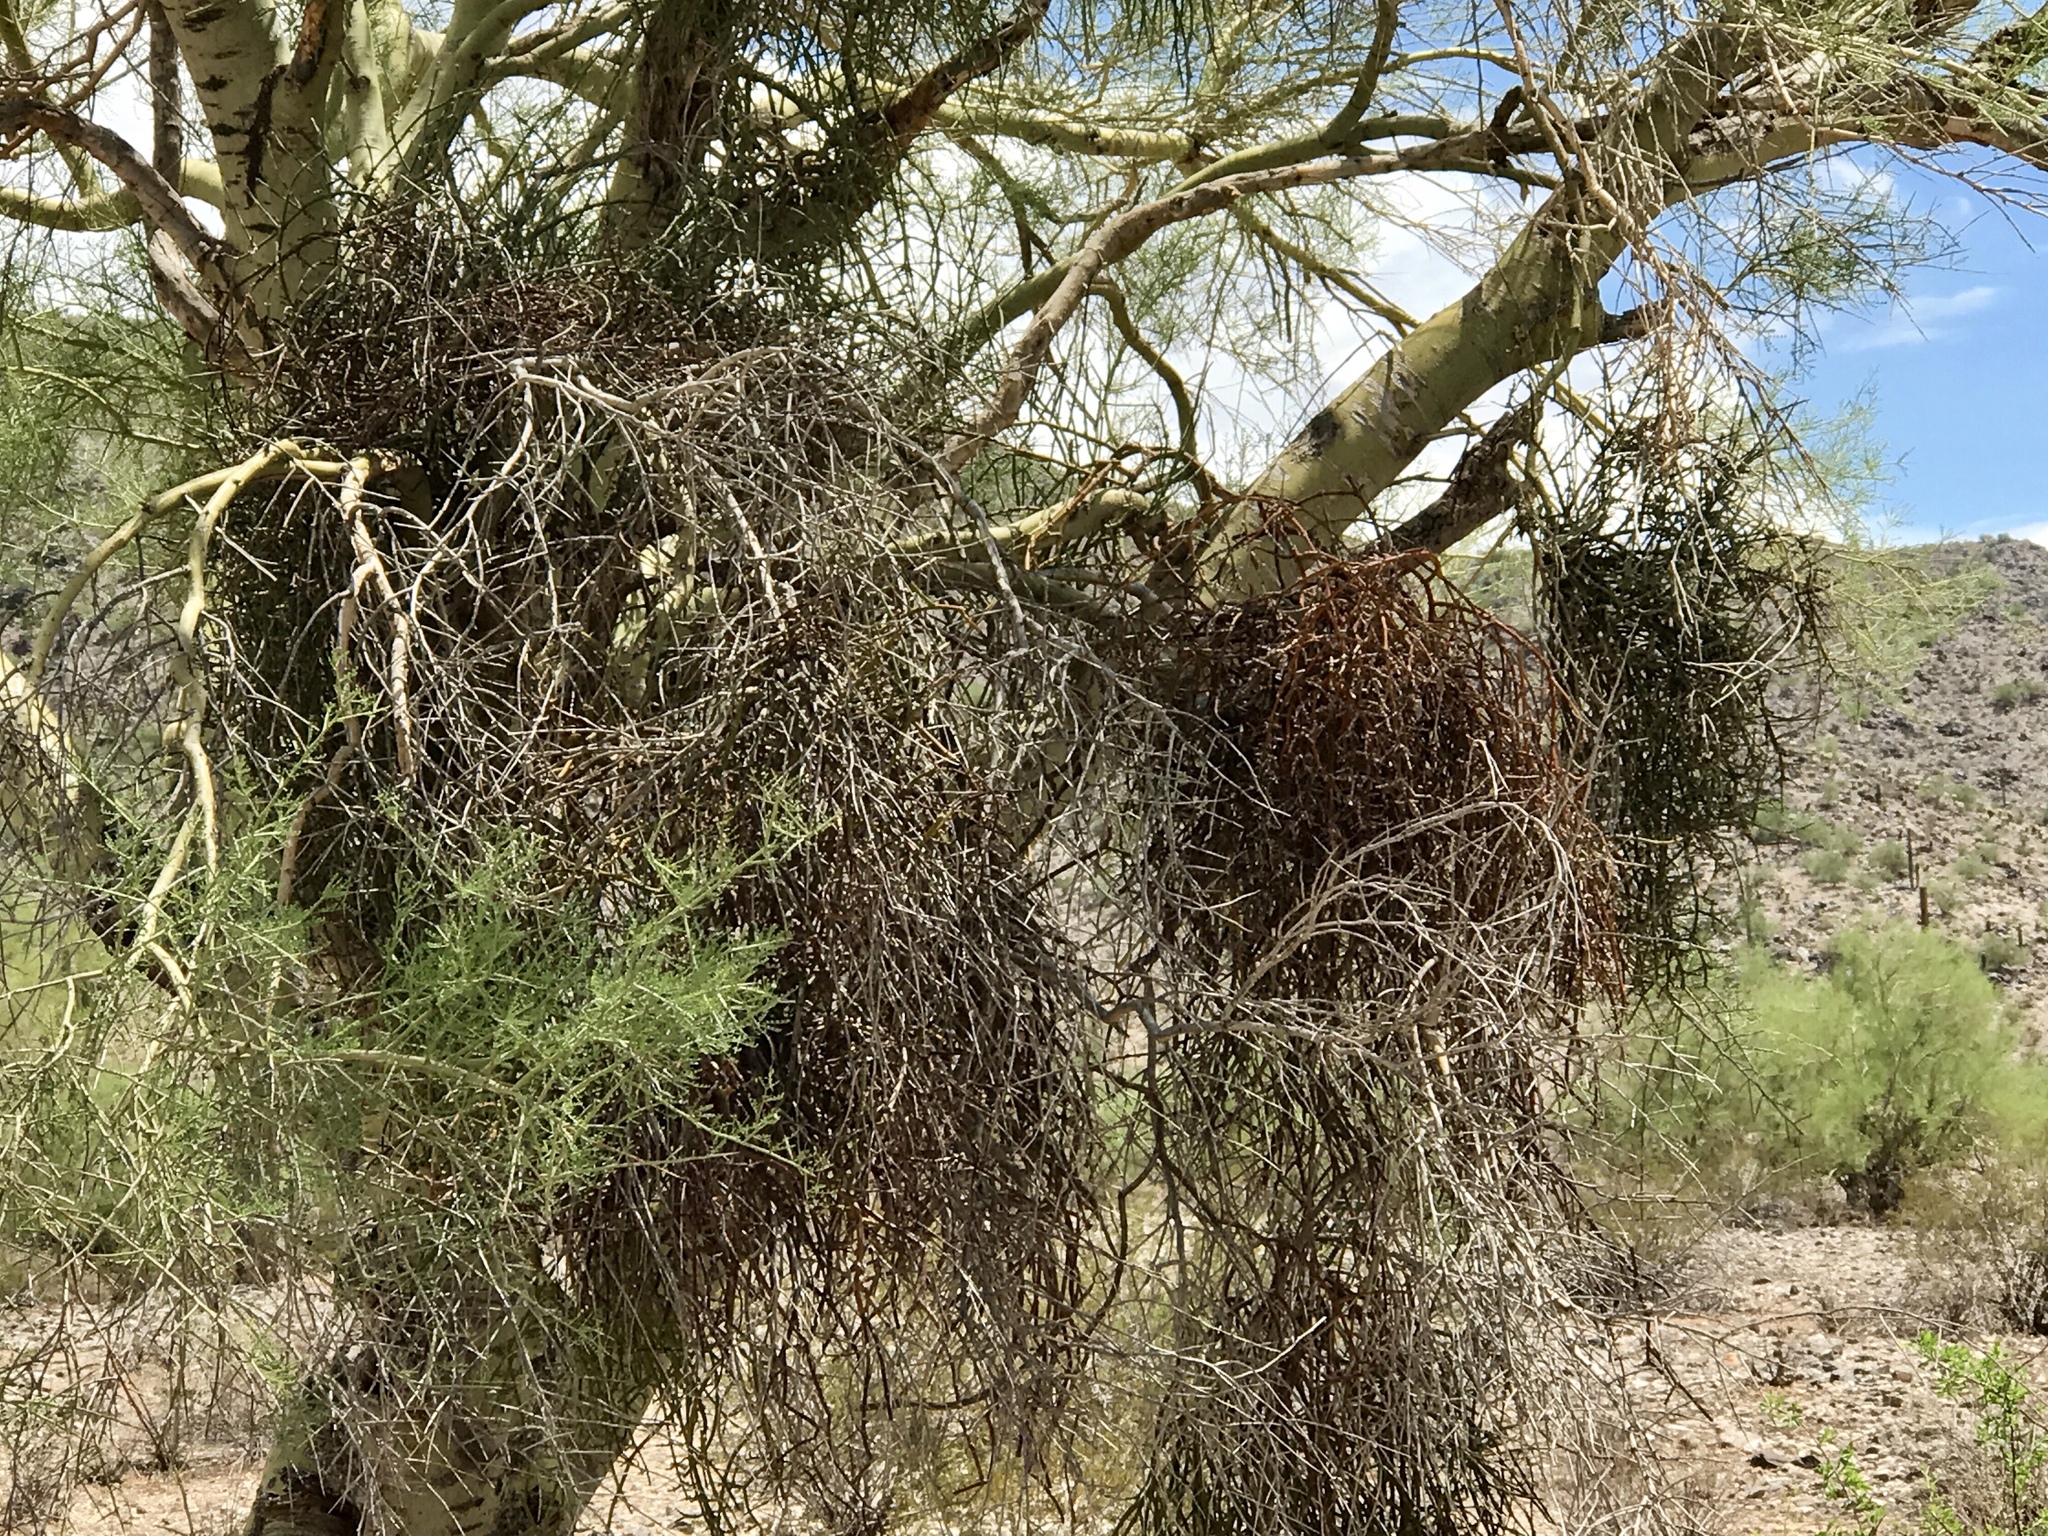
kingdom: Plantae
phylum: Tracheophyta
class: Magnoliopsida
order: Santalales
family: Viscaceae
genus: Phoradendron
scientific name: Phoradendron californicum
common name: Acacia mistletoe
